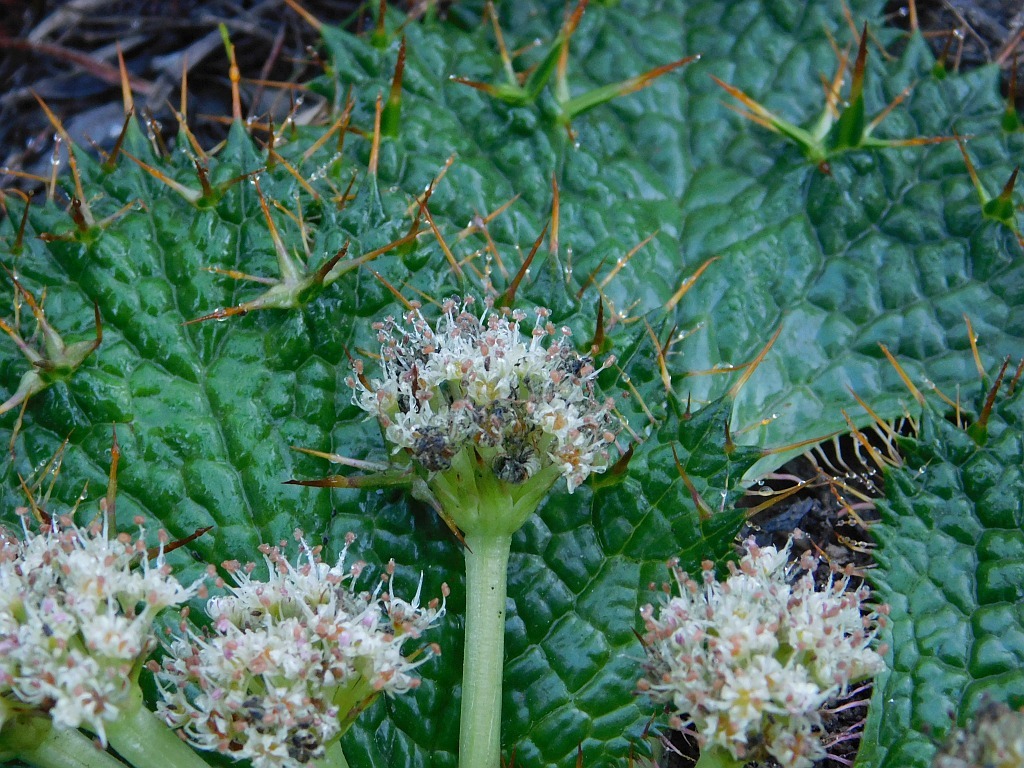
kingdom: Plantae
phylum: Tracheophyta
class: Magnoliopsida
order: Apiales
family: Apiaceae
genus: Arctopus
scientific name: Arctopus echinatus
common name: Platdoring
